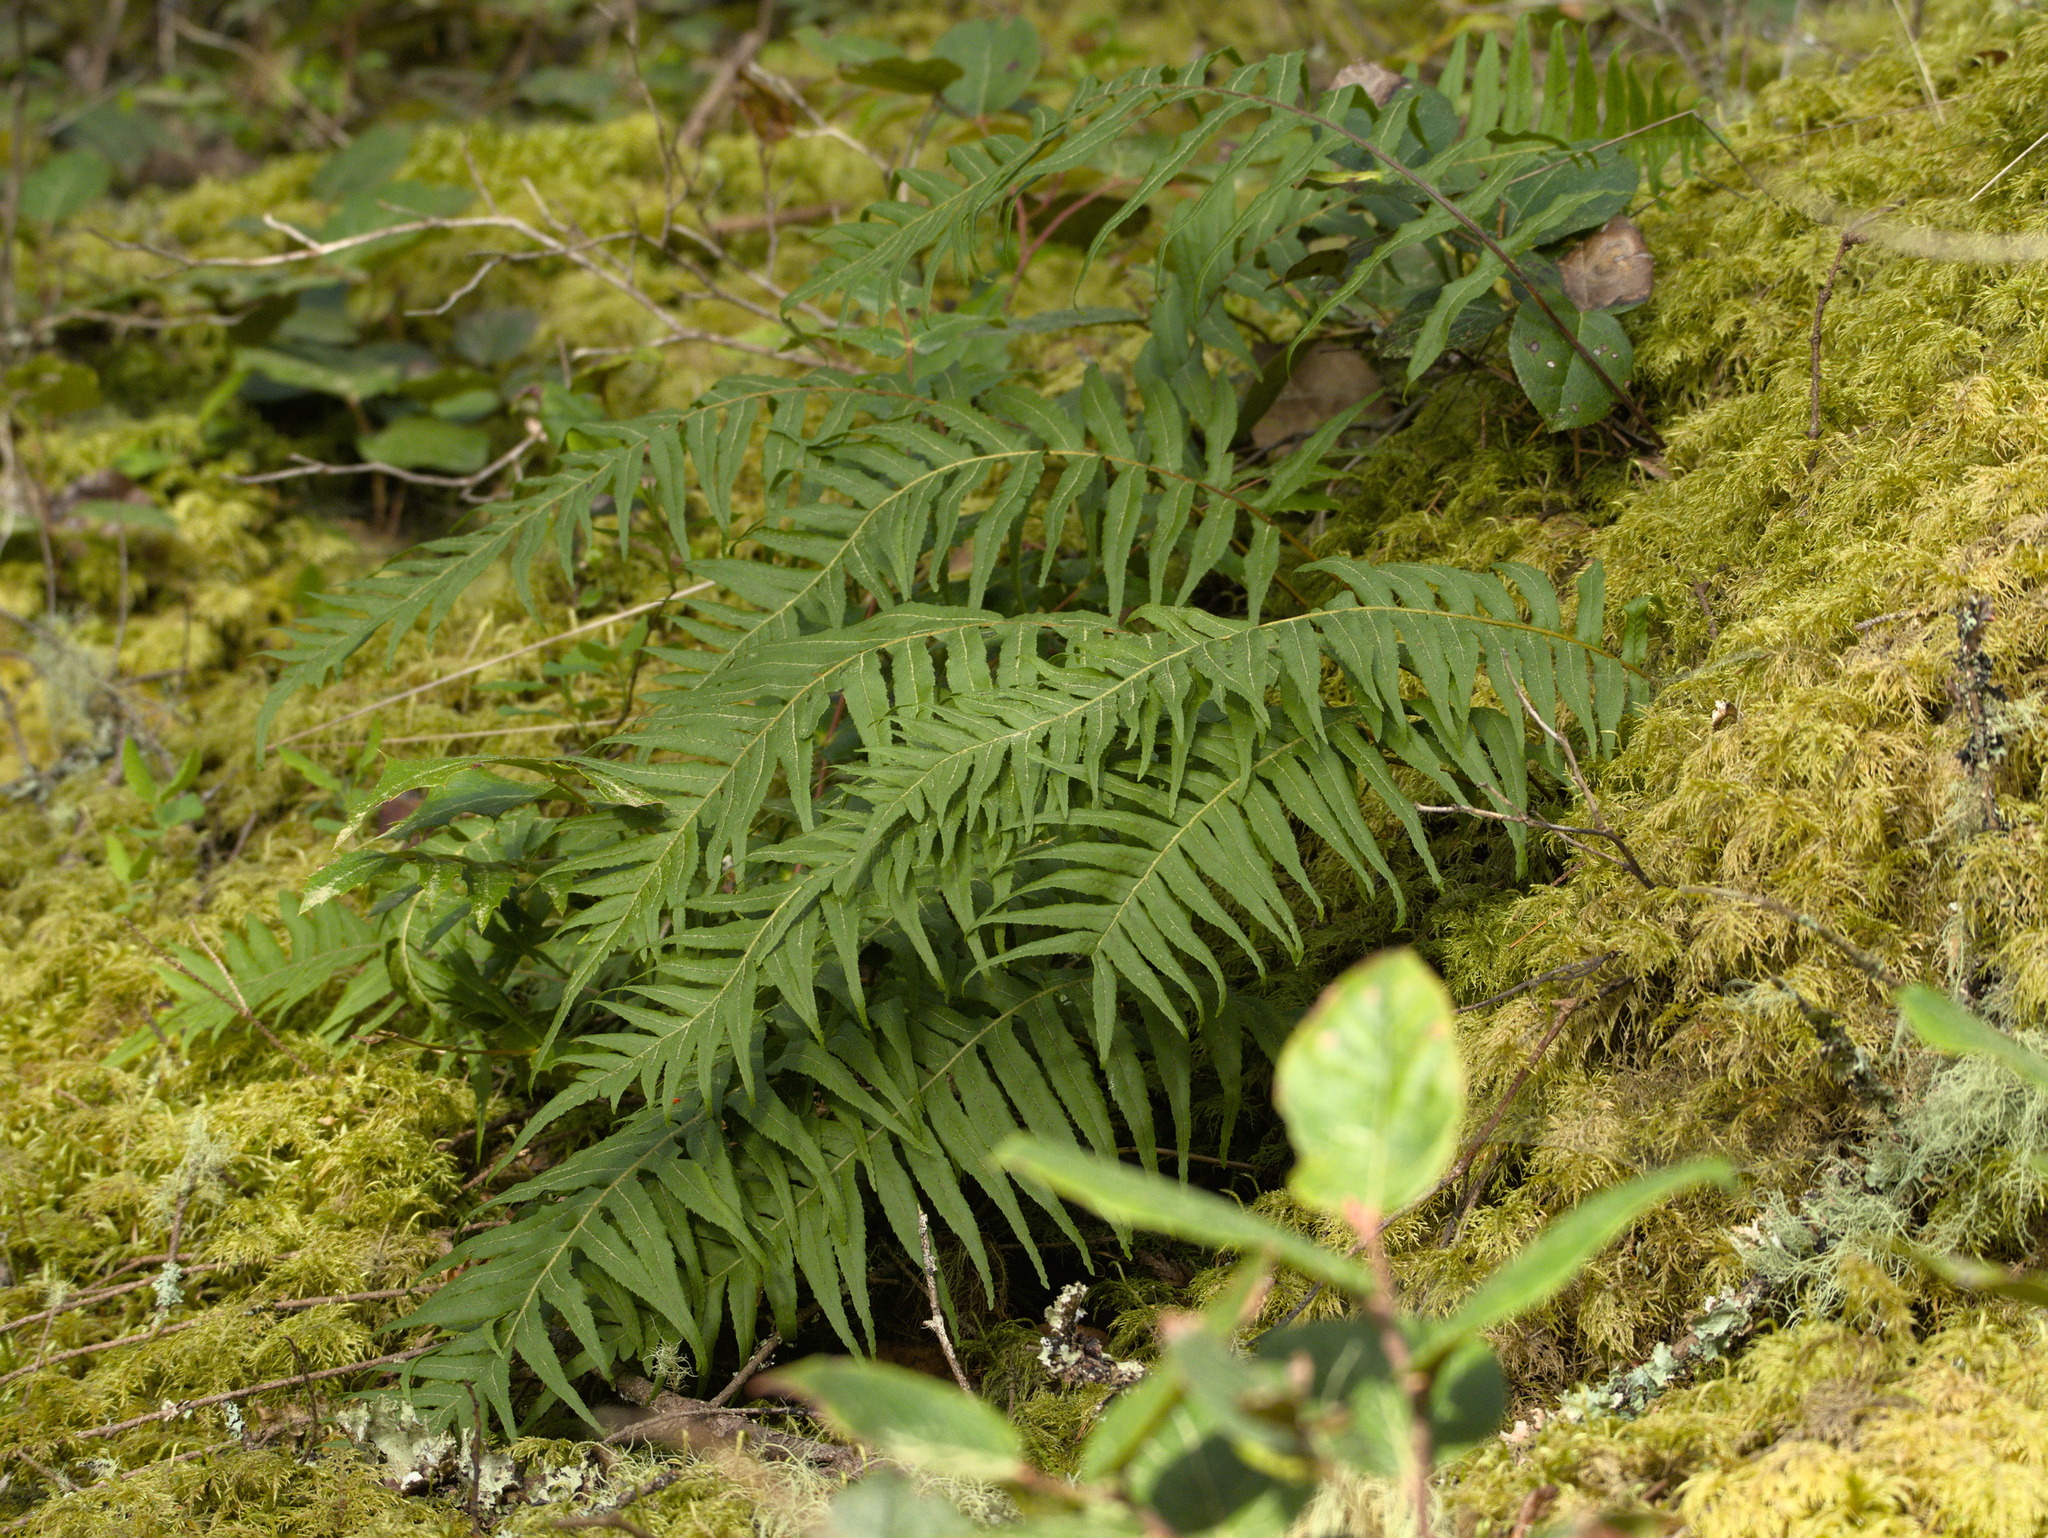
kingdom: Plantae
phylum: Tracheophyta
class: Polypodiopsida
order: Polypodiales
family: Polypodiaceae
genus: Polypodium
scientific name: Polypodium glycyrrhiza
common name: Licorice fern
